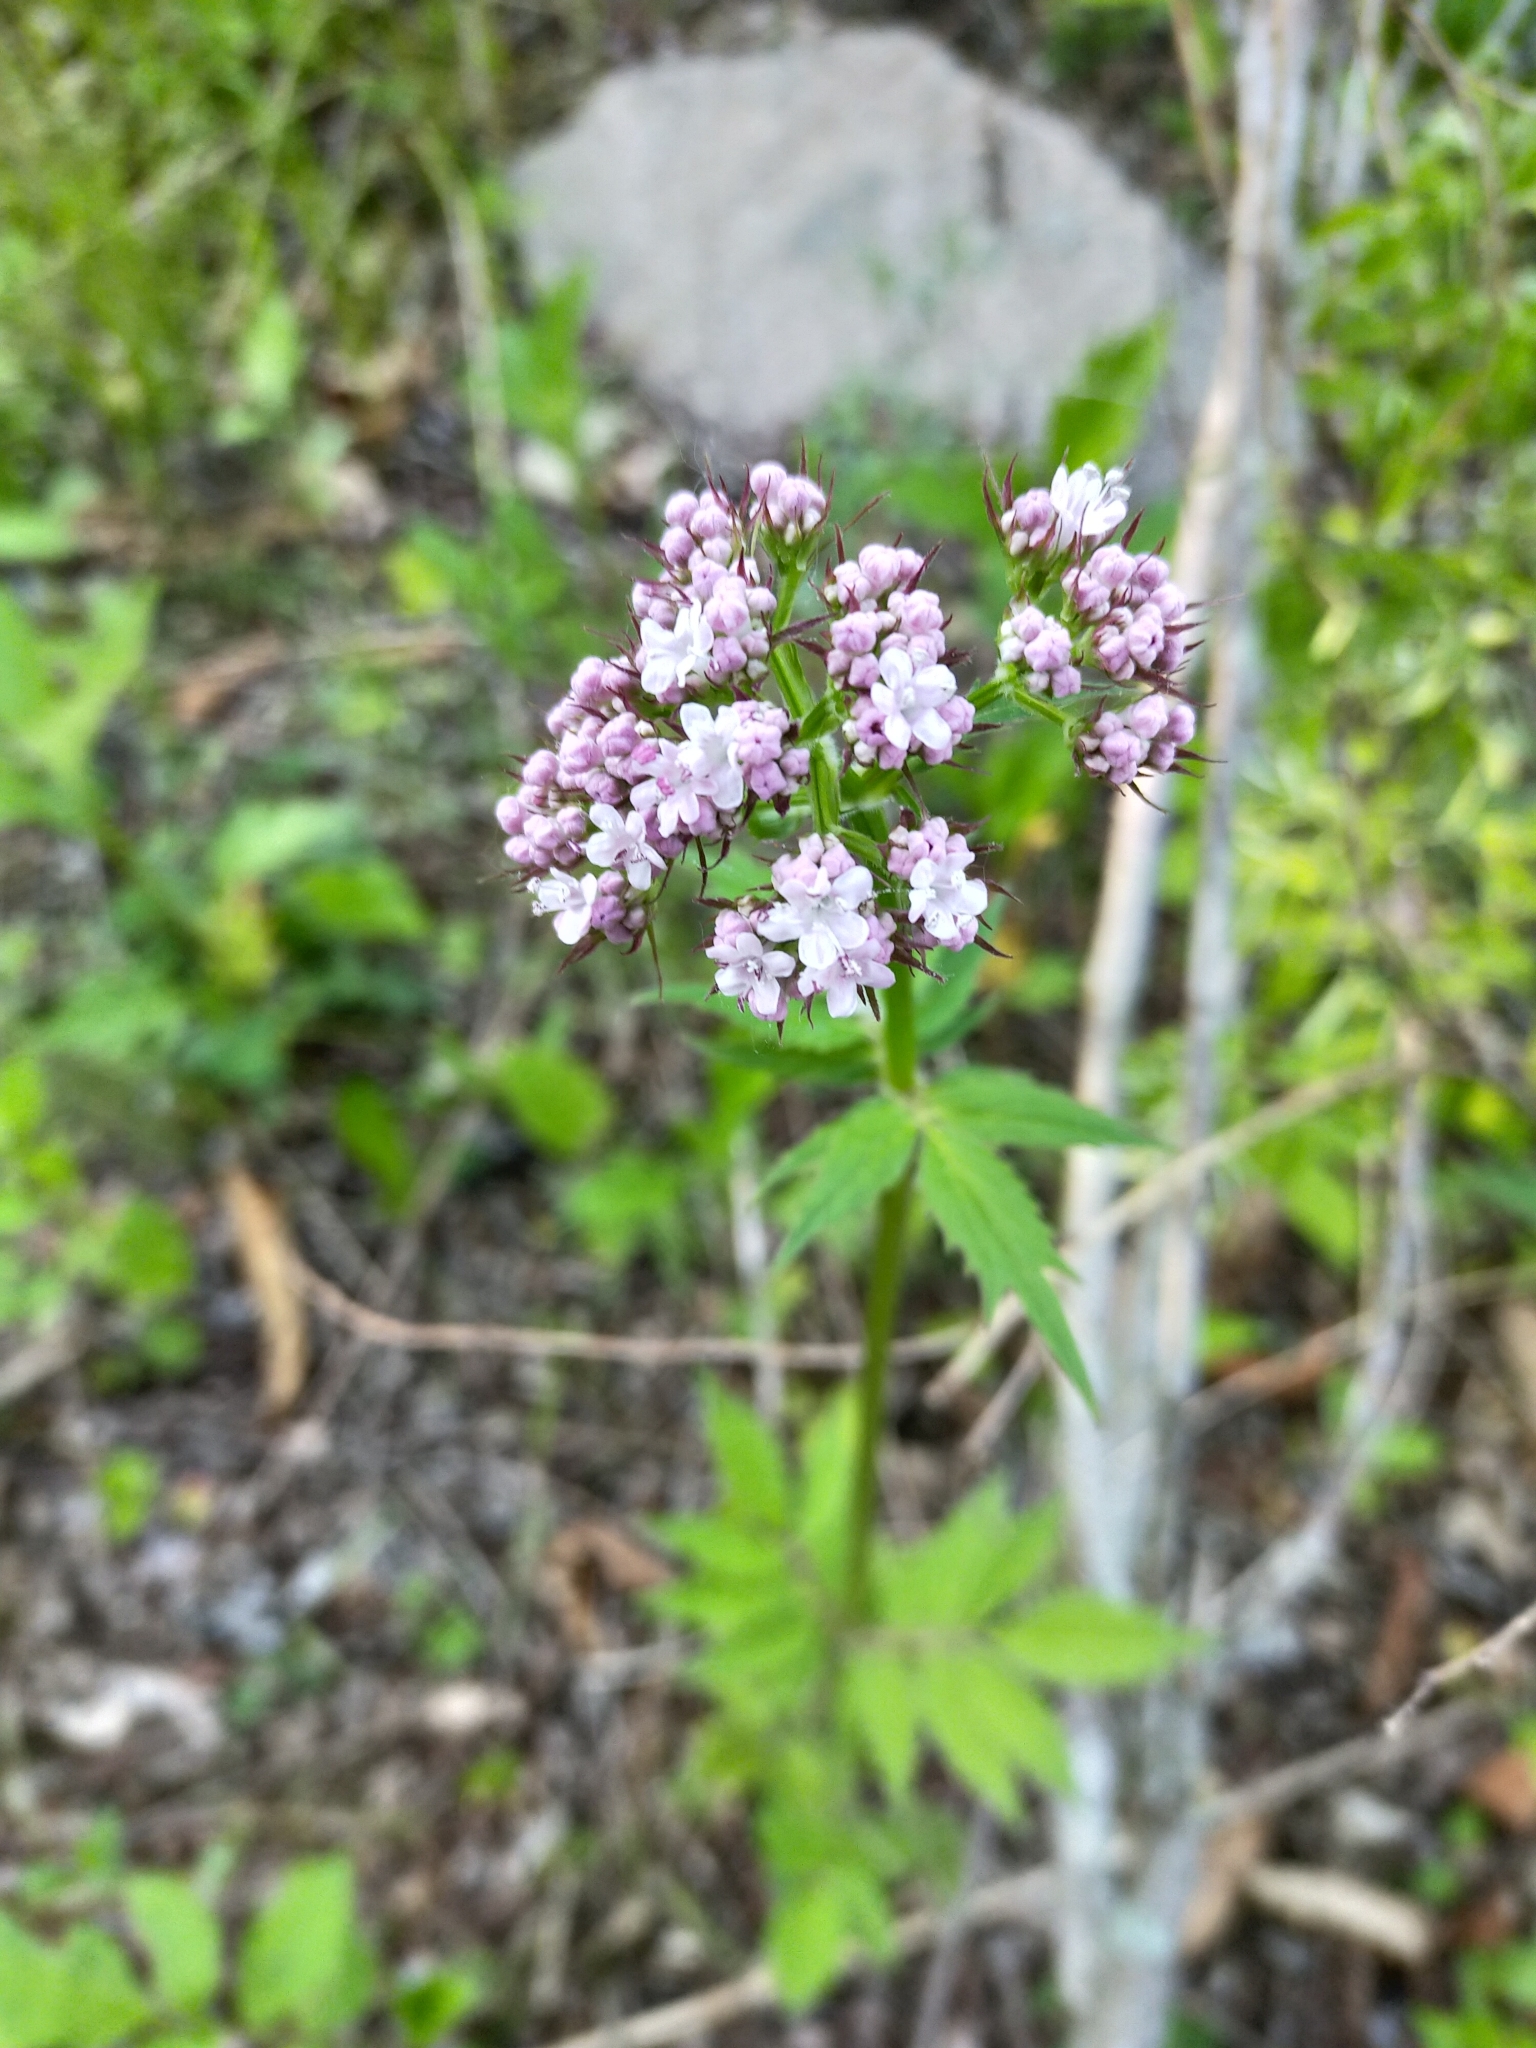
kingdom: Plantae
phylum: Tracheophyta
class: Magnoliopsida
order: Dipsacales
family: Caprifoliaceae
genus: Valeriana
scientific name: Valeriana fauriei
